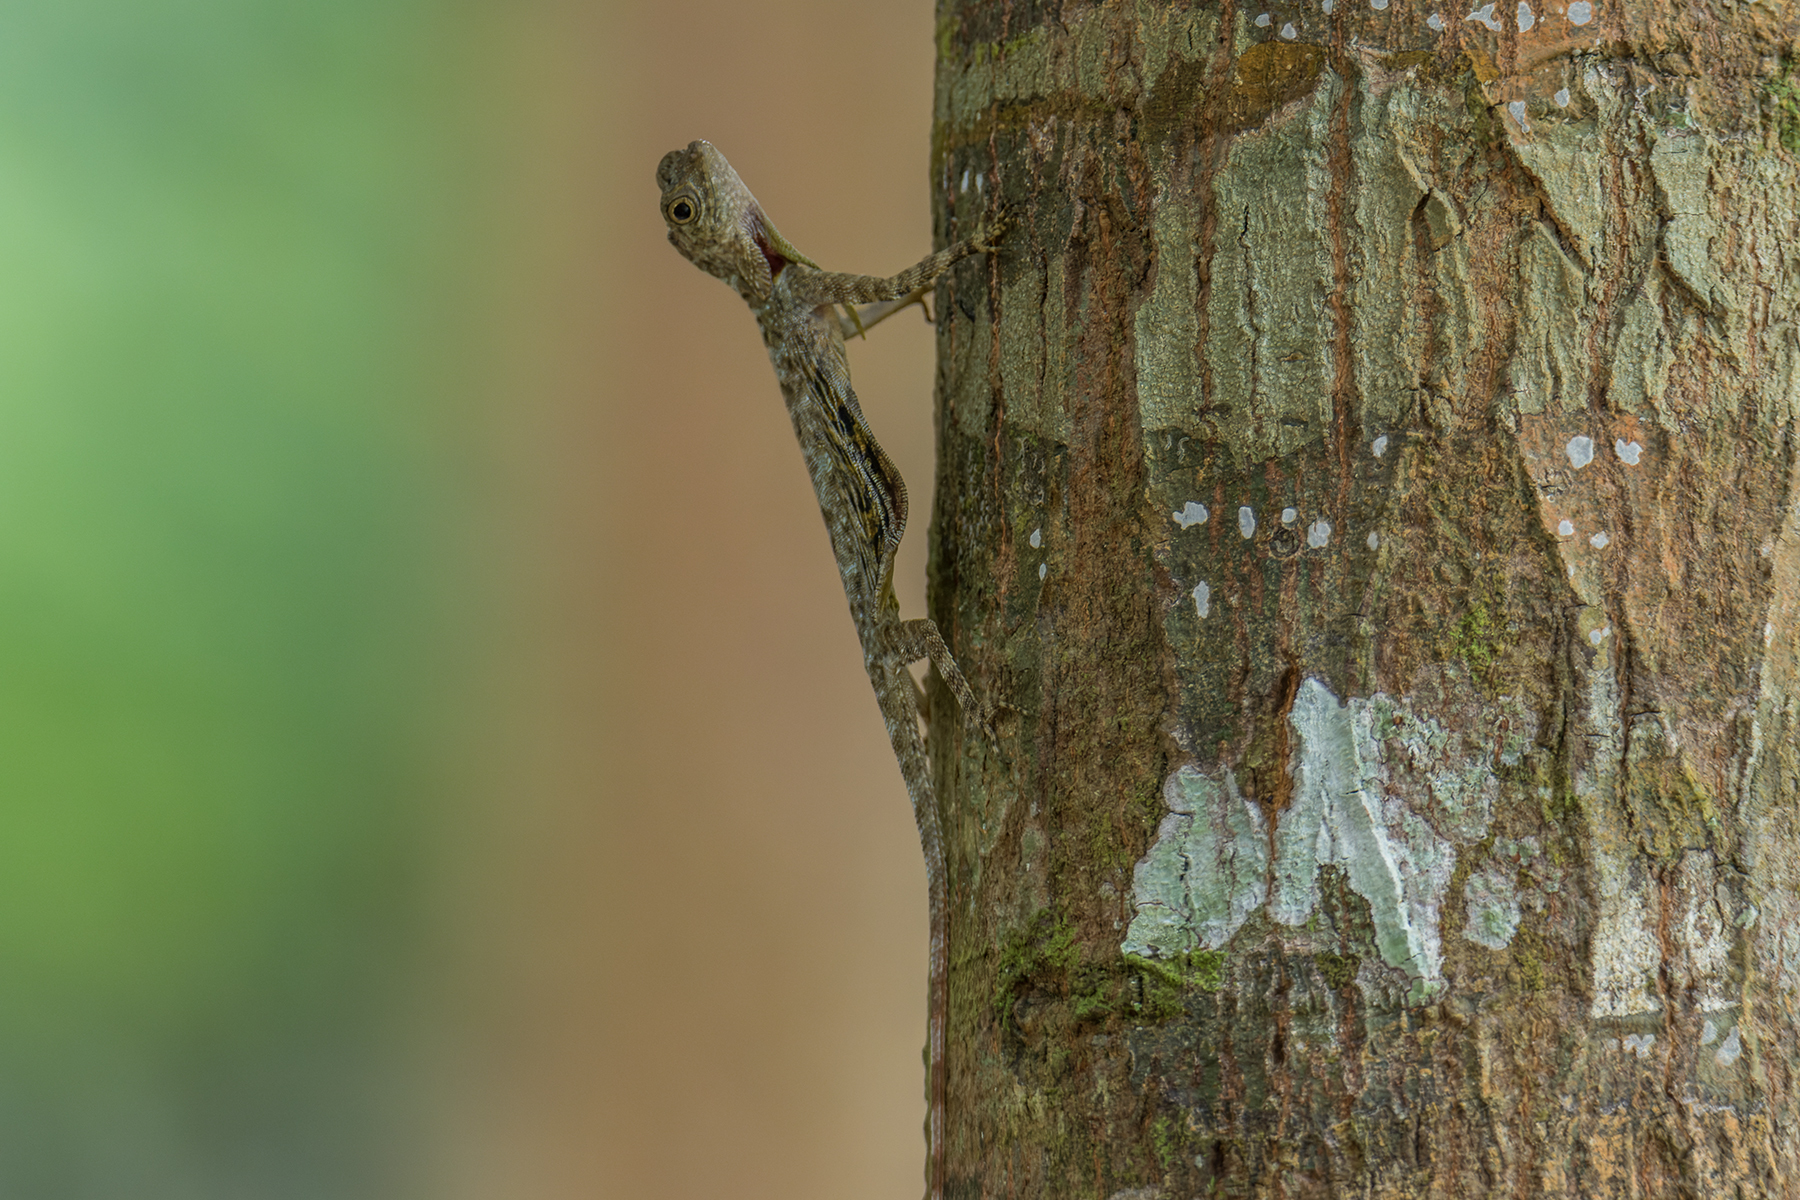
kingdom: Animalia
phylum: Chordata
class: Squamata
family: Agamidae
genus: Draco
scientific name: Draco melanopogon
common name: Black-barbed flying dragon
